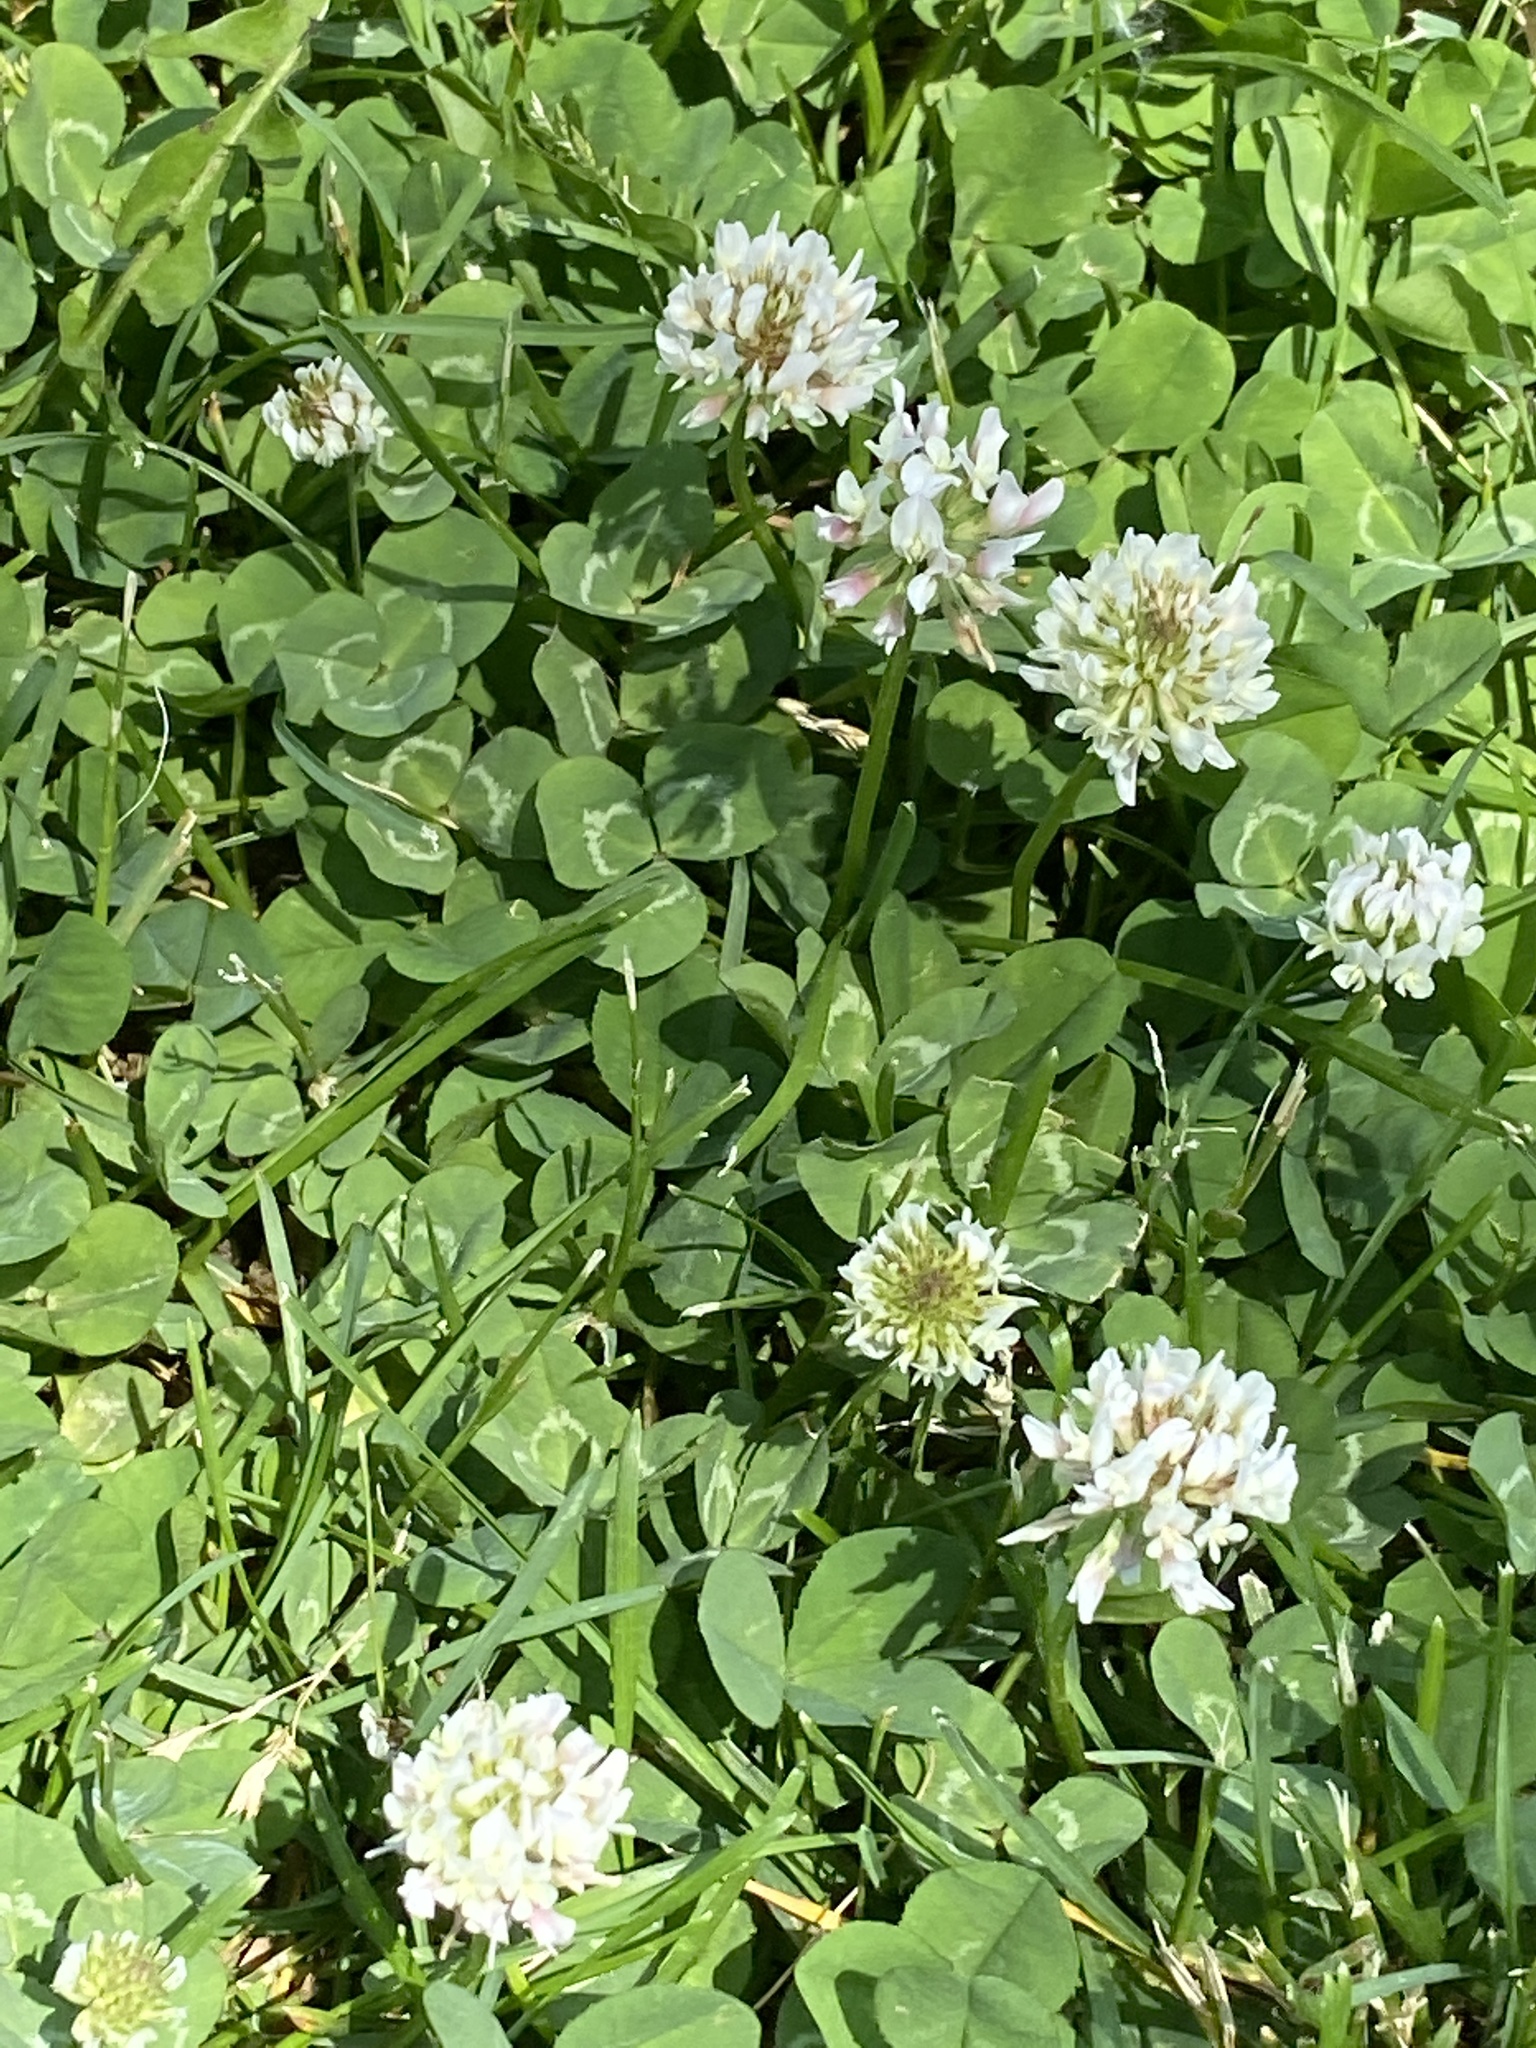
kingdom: Plantae
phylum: Tracheophyta
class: Magnoliopsida
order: Fabales
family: Fabaceae
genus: Trifolium
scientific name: Trifolium repens
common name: White clover
